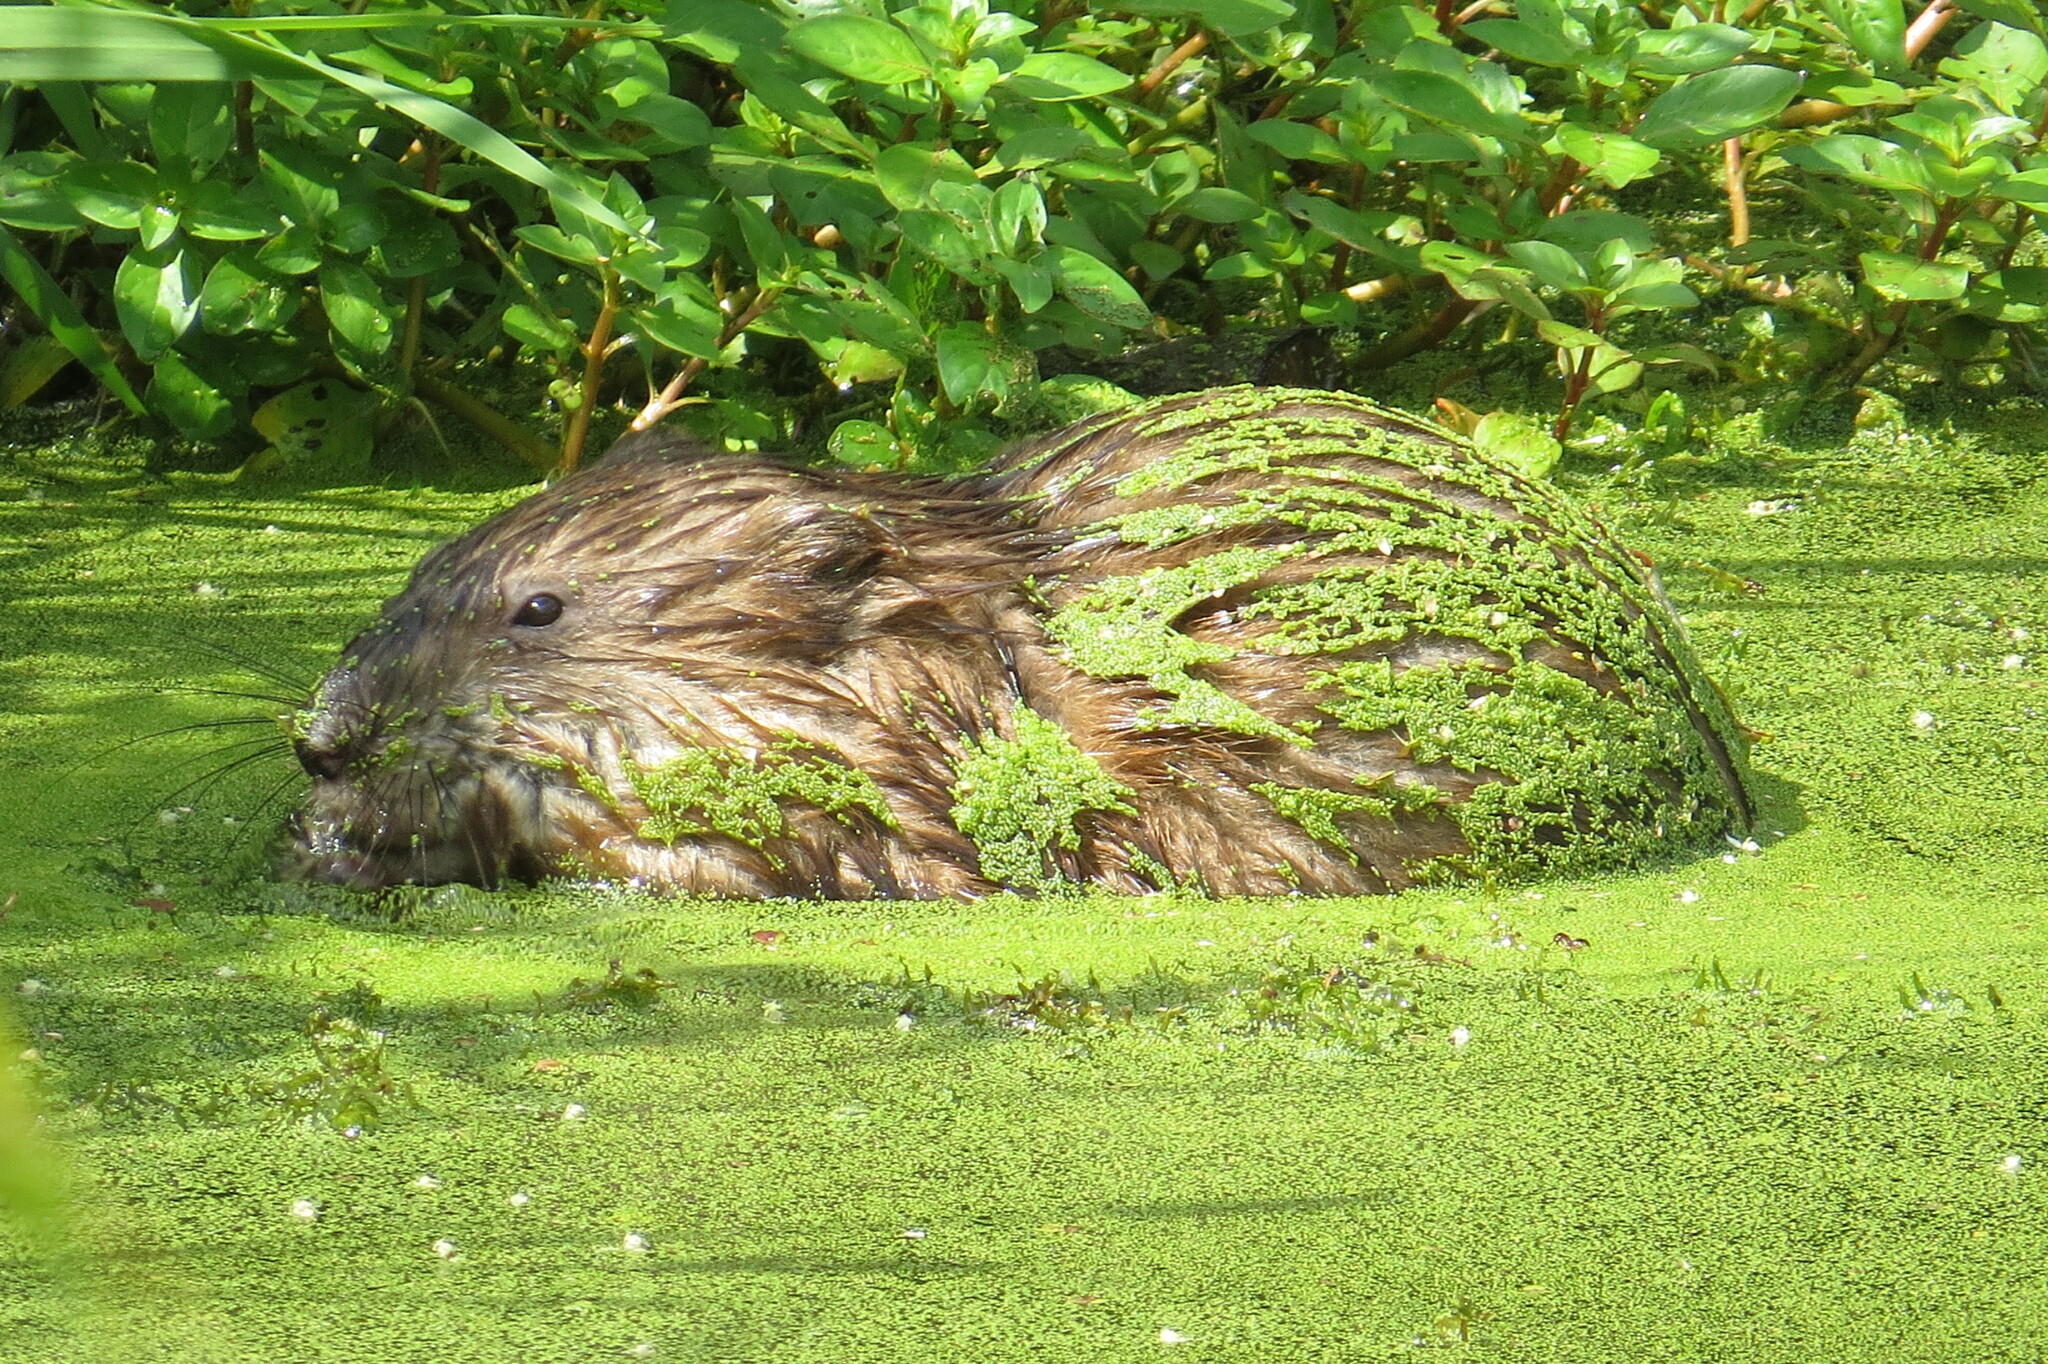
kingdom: Animalia
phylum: Chordata
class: Mammalia
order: Rodentia
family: Cricetidae
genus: Ondatra
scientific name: Ondatra zibethicus
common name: Muskrat
